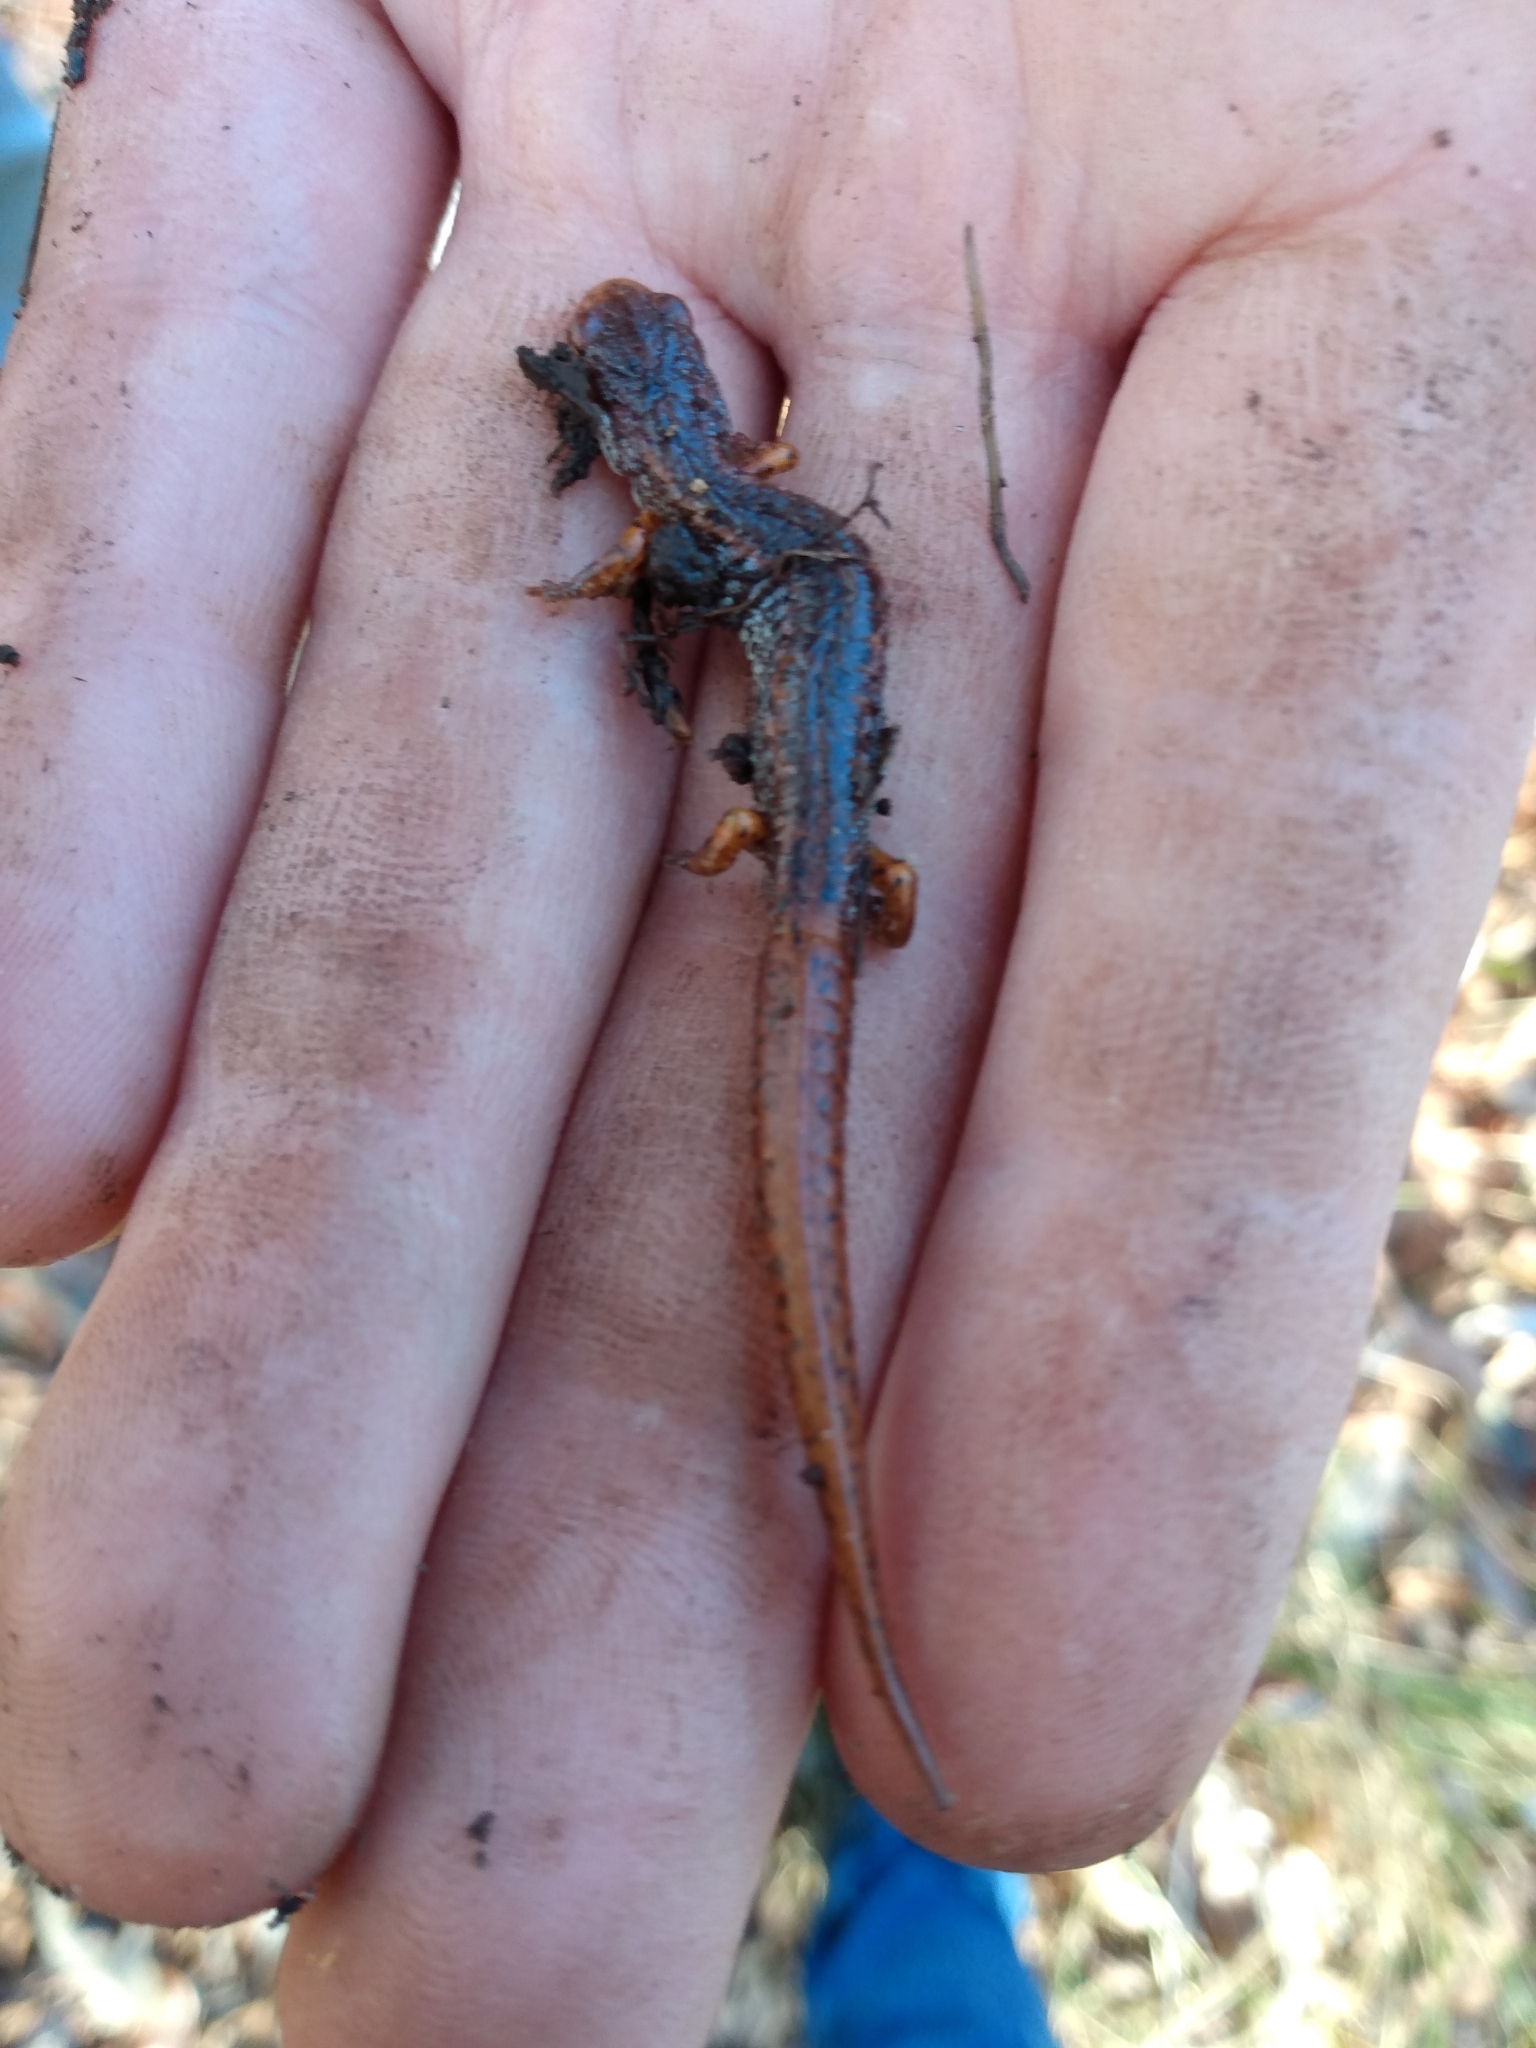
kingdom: Animalia
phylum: Chordata
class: Amphibia
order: Caudata
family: Plethodontidae
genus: Hemidactylium
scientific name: Hemidactylium scutatum
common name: Four-toed salamander
